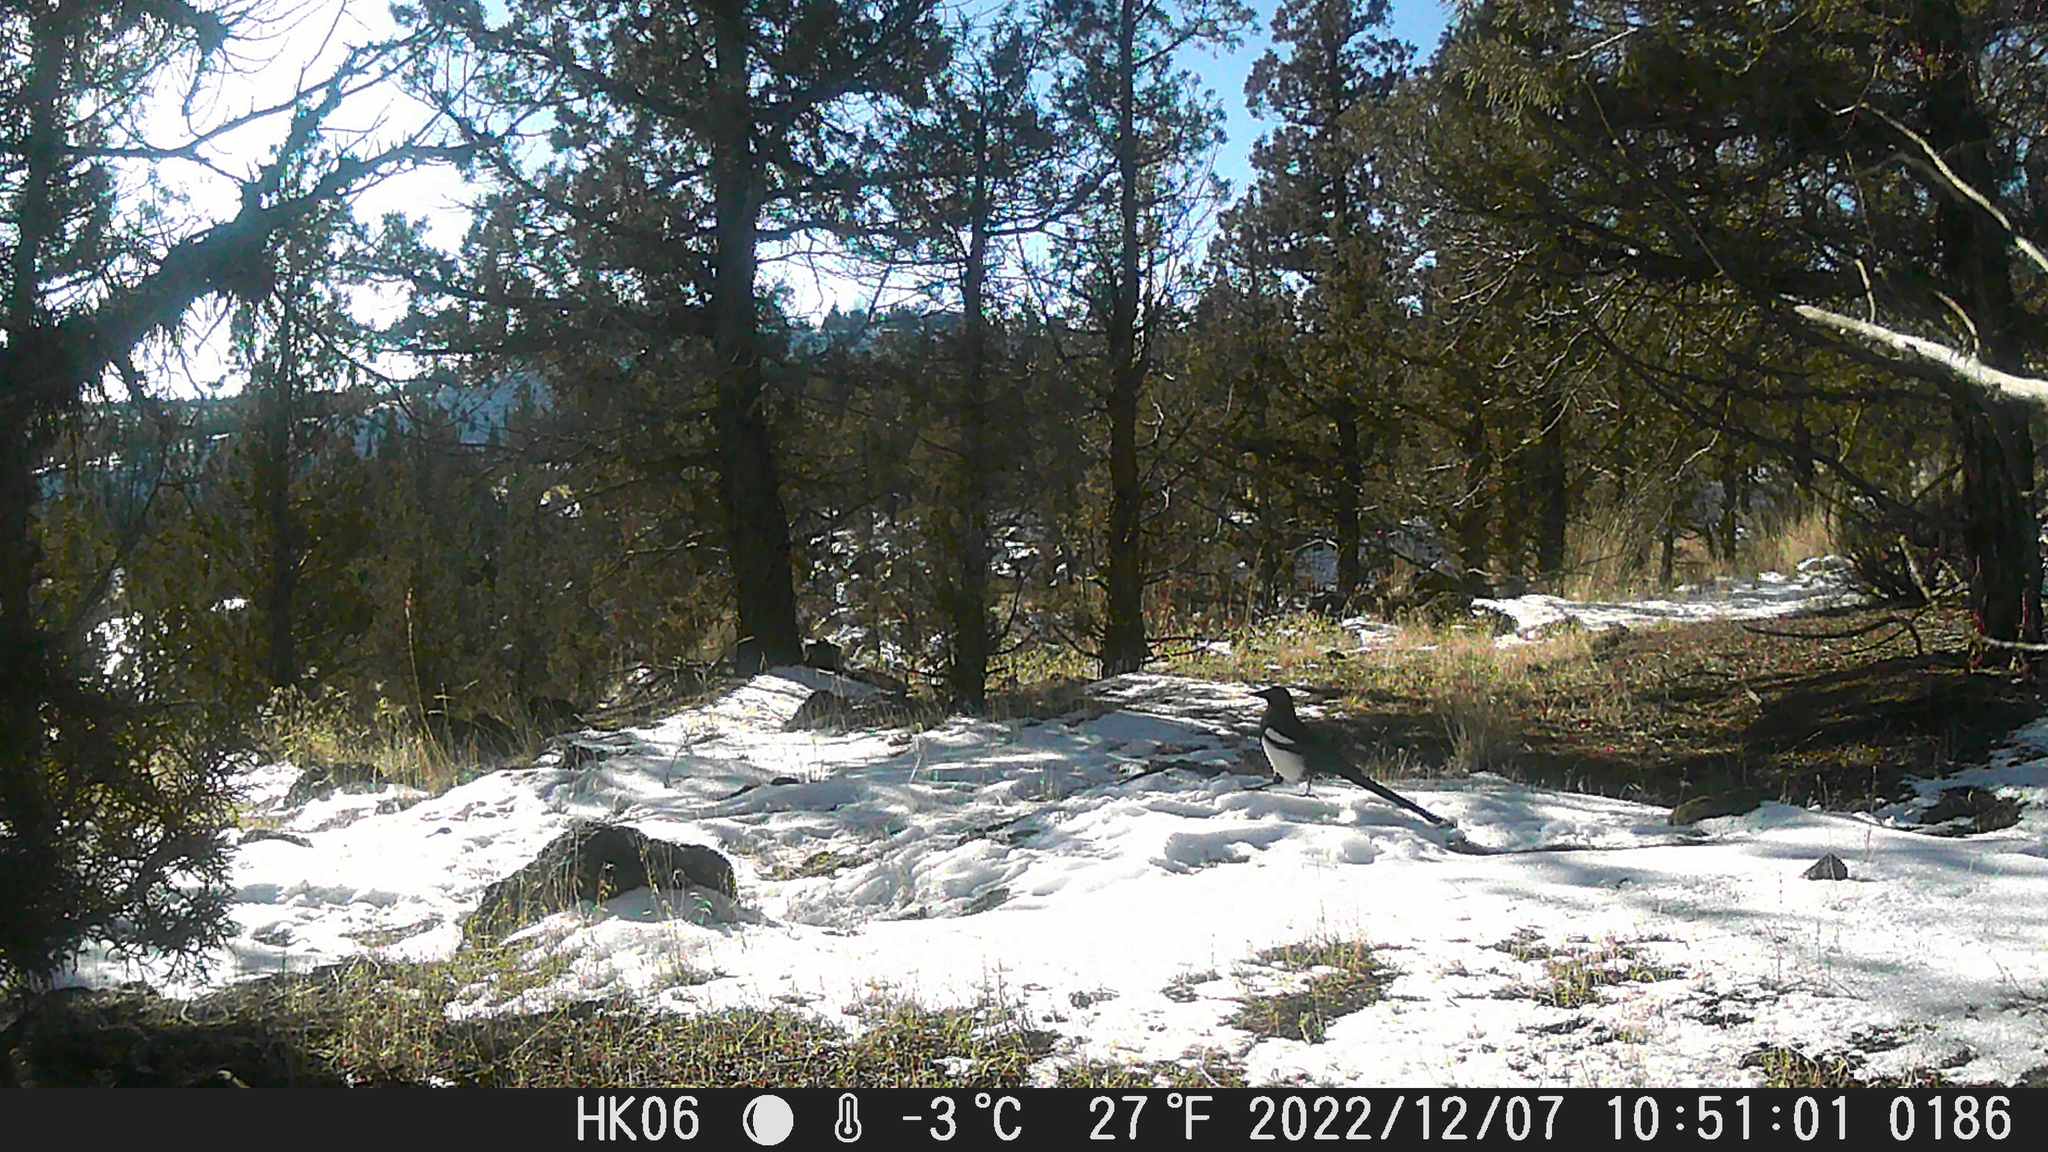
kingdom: Animalia
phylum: Chordata
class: Aves
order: Passeriformes
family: Corvidae
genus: Pica
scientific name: Pica hudsonia
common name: Black-billed magpie
